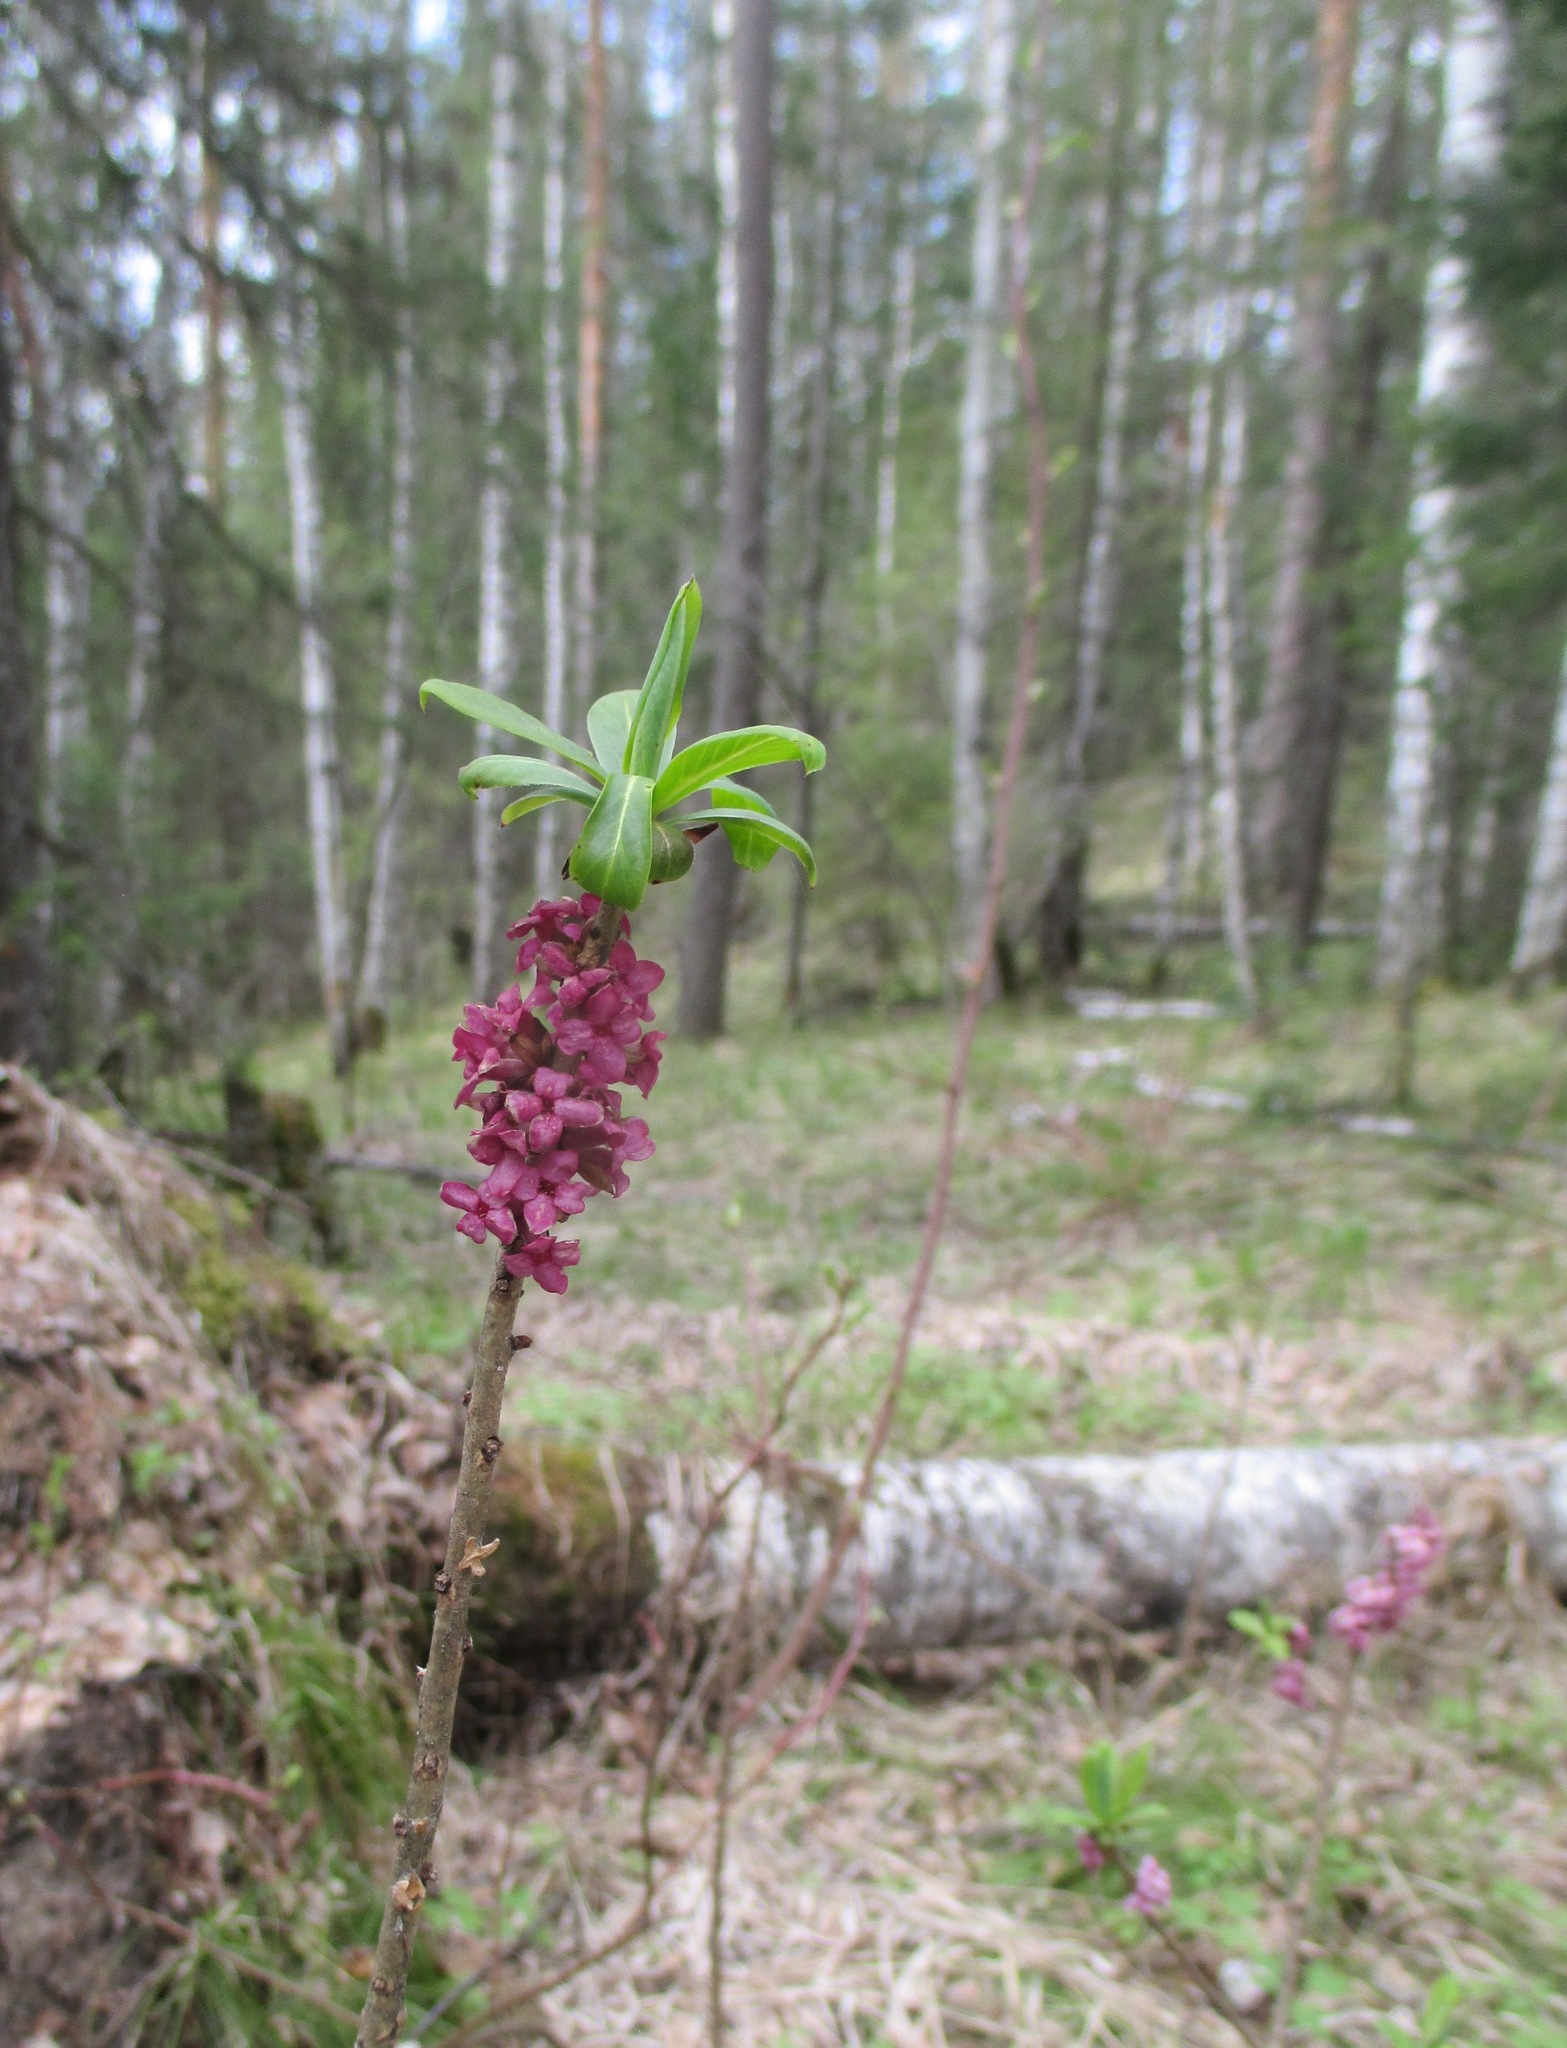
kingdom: Plantae
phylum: Tracheophyta
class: Magnoliopsida
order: Malvales
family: Thymelaeaceae
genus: Daphne
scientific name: Daphne mezereum
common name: Mezereon
